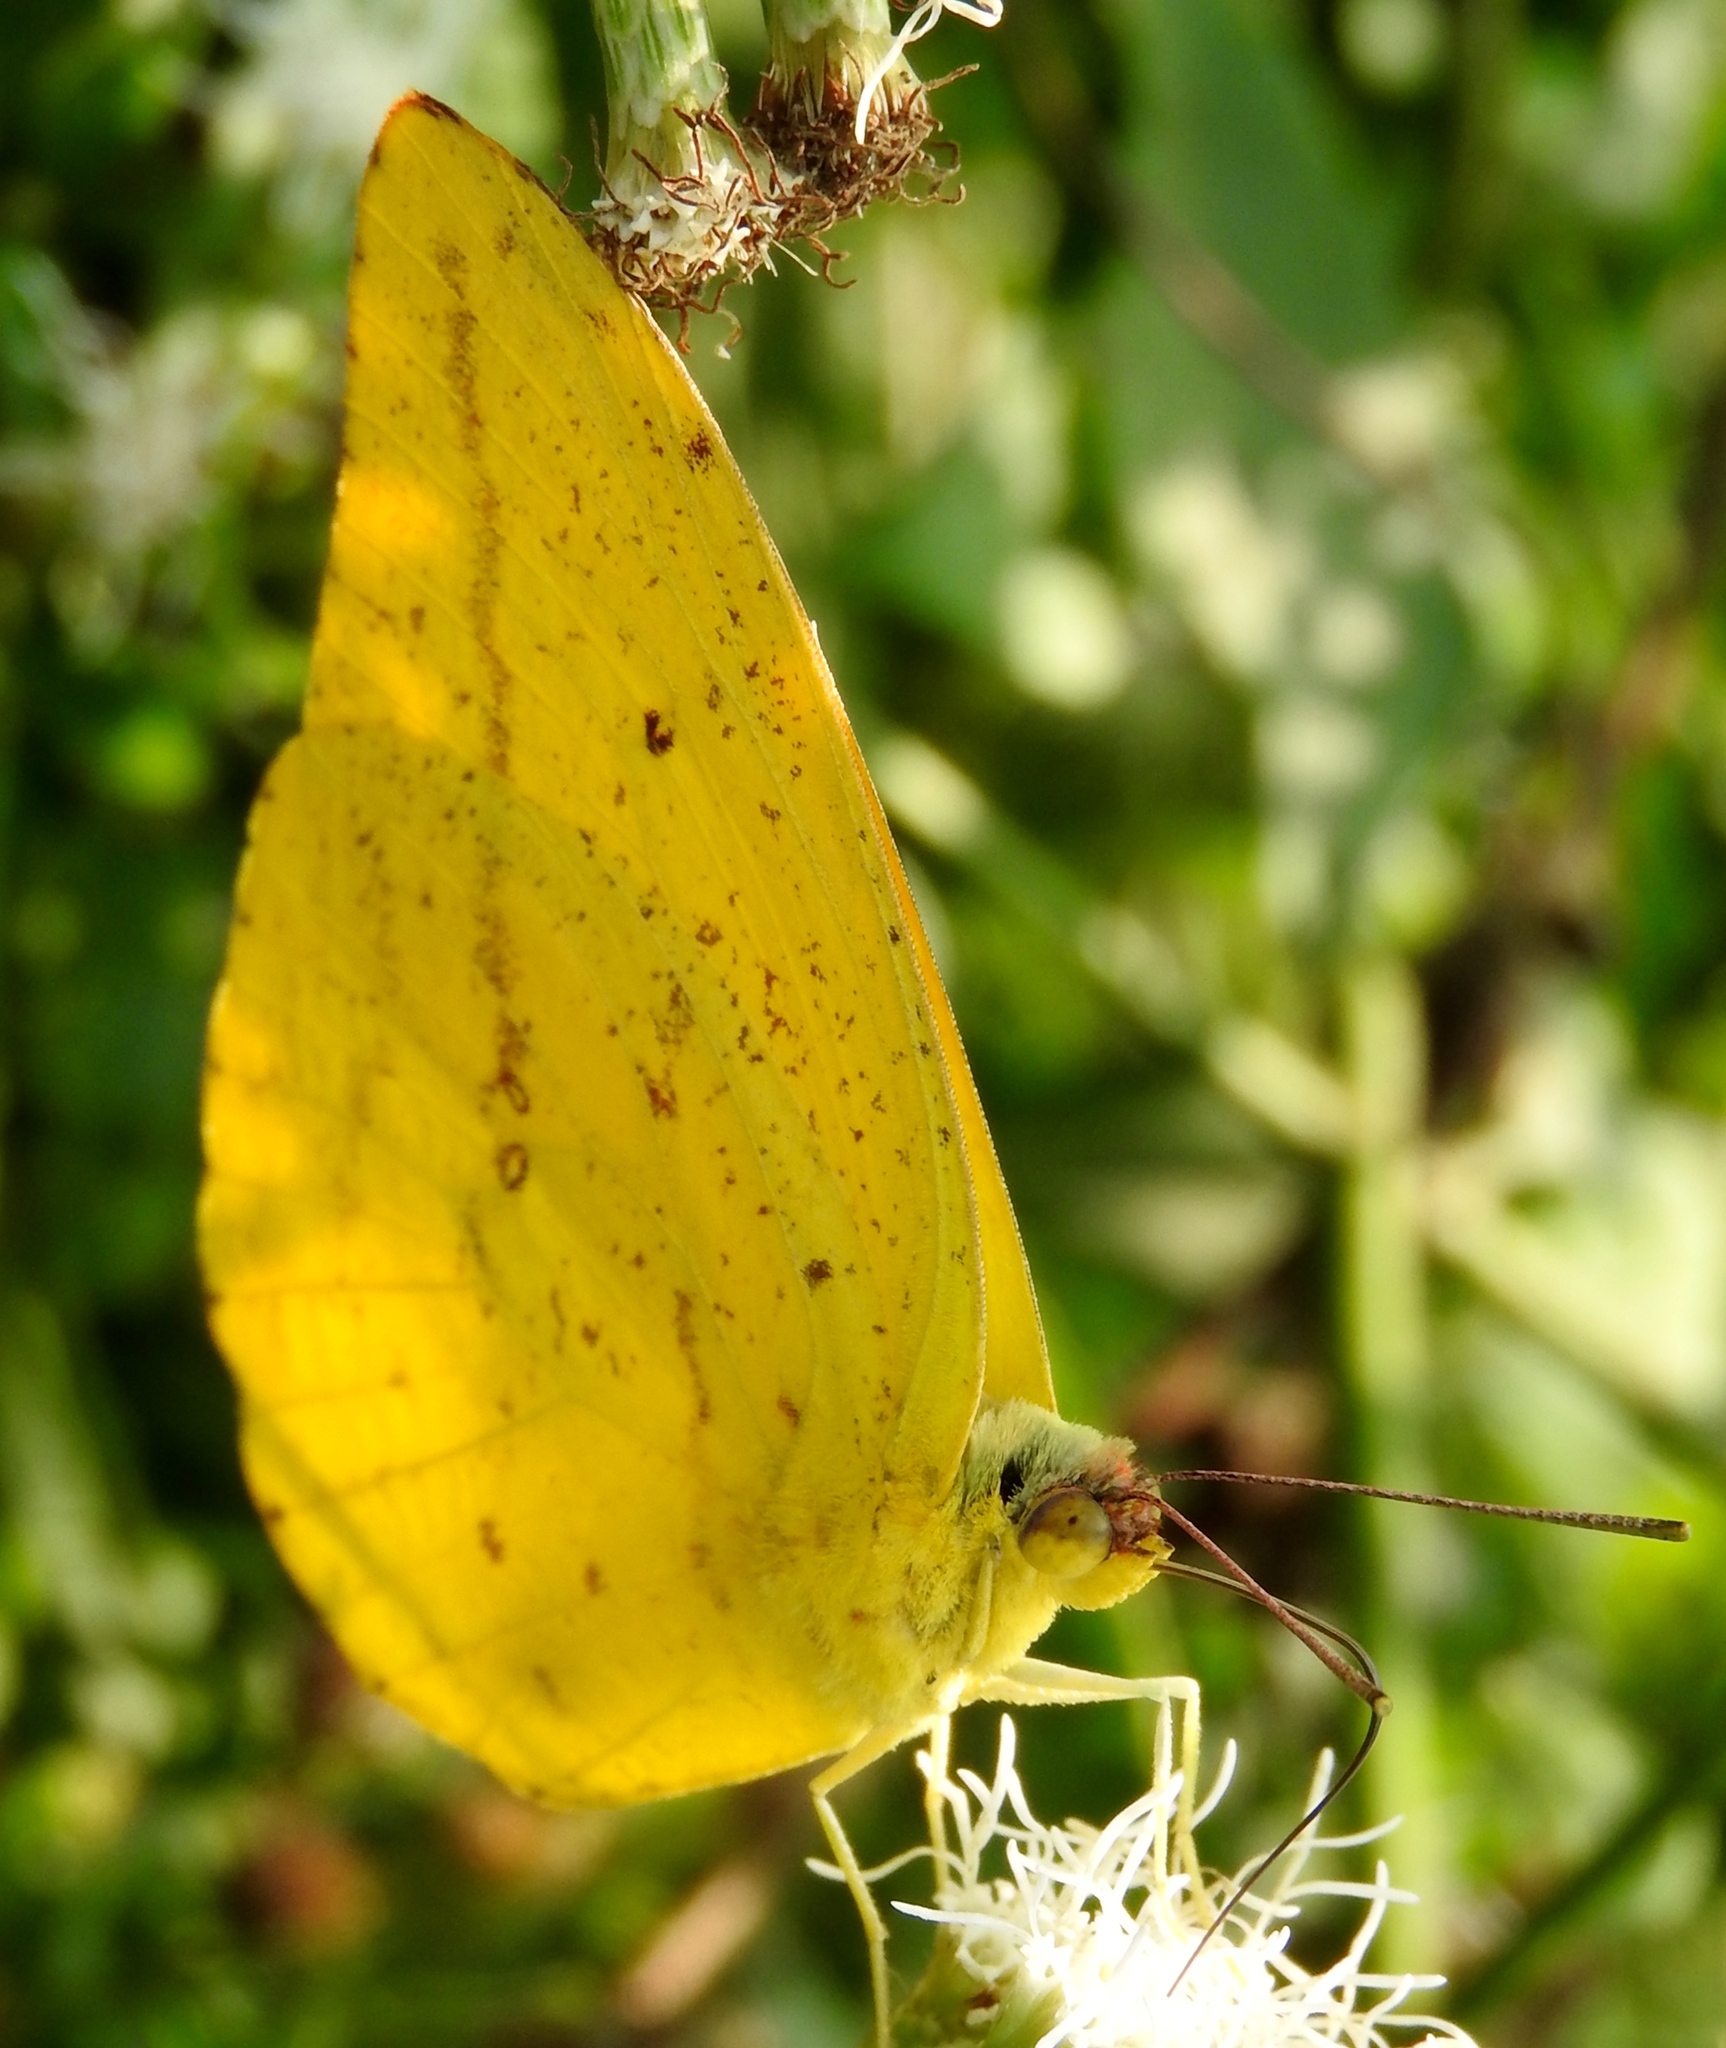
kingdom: Animalia
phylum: Arthropoda
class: Insecta
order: Lepidoptera
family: Pieridae
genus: Phoebis
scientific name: Phoebis agarithe
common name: Large orange sulphur
